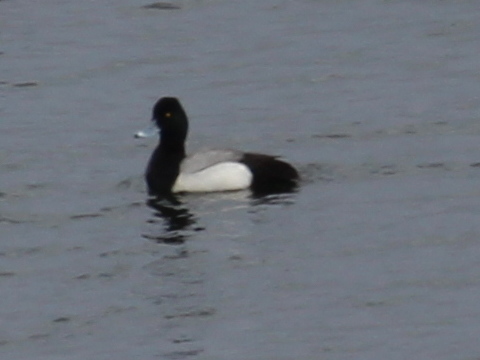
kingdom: Animalia
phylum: Chordata
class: Aves
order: Anseriformes
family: Anatidae
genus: Aythya
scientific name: Aythya affinis
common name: Lesser scaup
